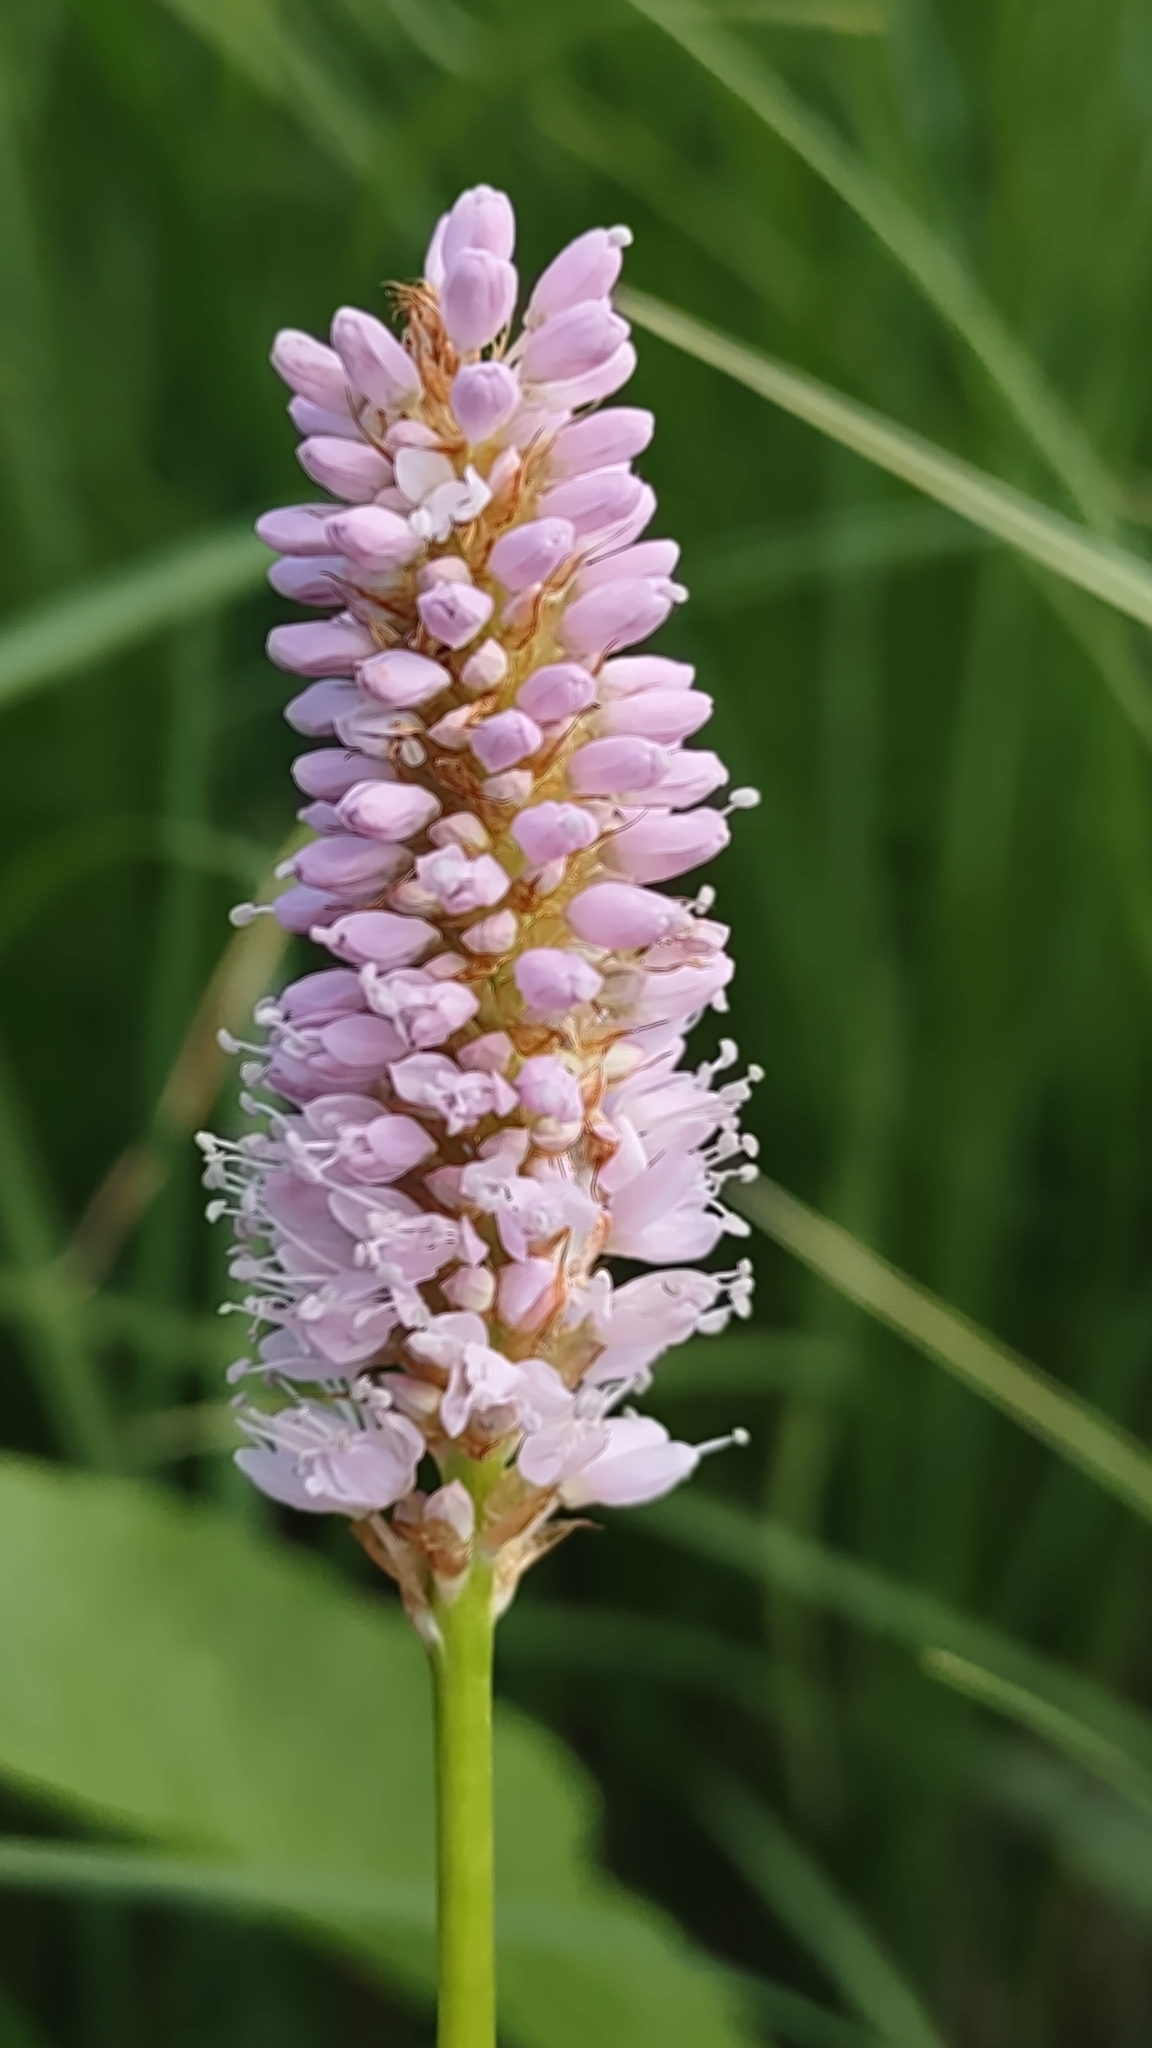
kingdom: Plantae
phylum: Tracheophyta
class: Magnoliopsida
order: Caryophyllales
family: Polygonaceae
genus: Bistorta
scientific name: Bistorta officinalis
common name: Common bistort
